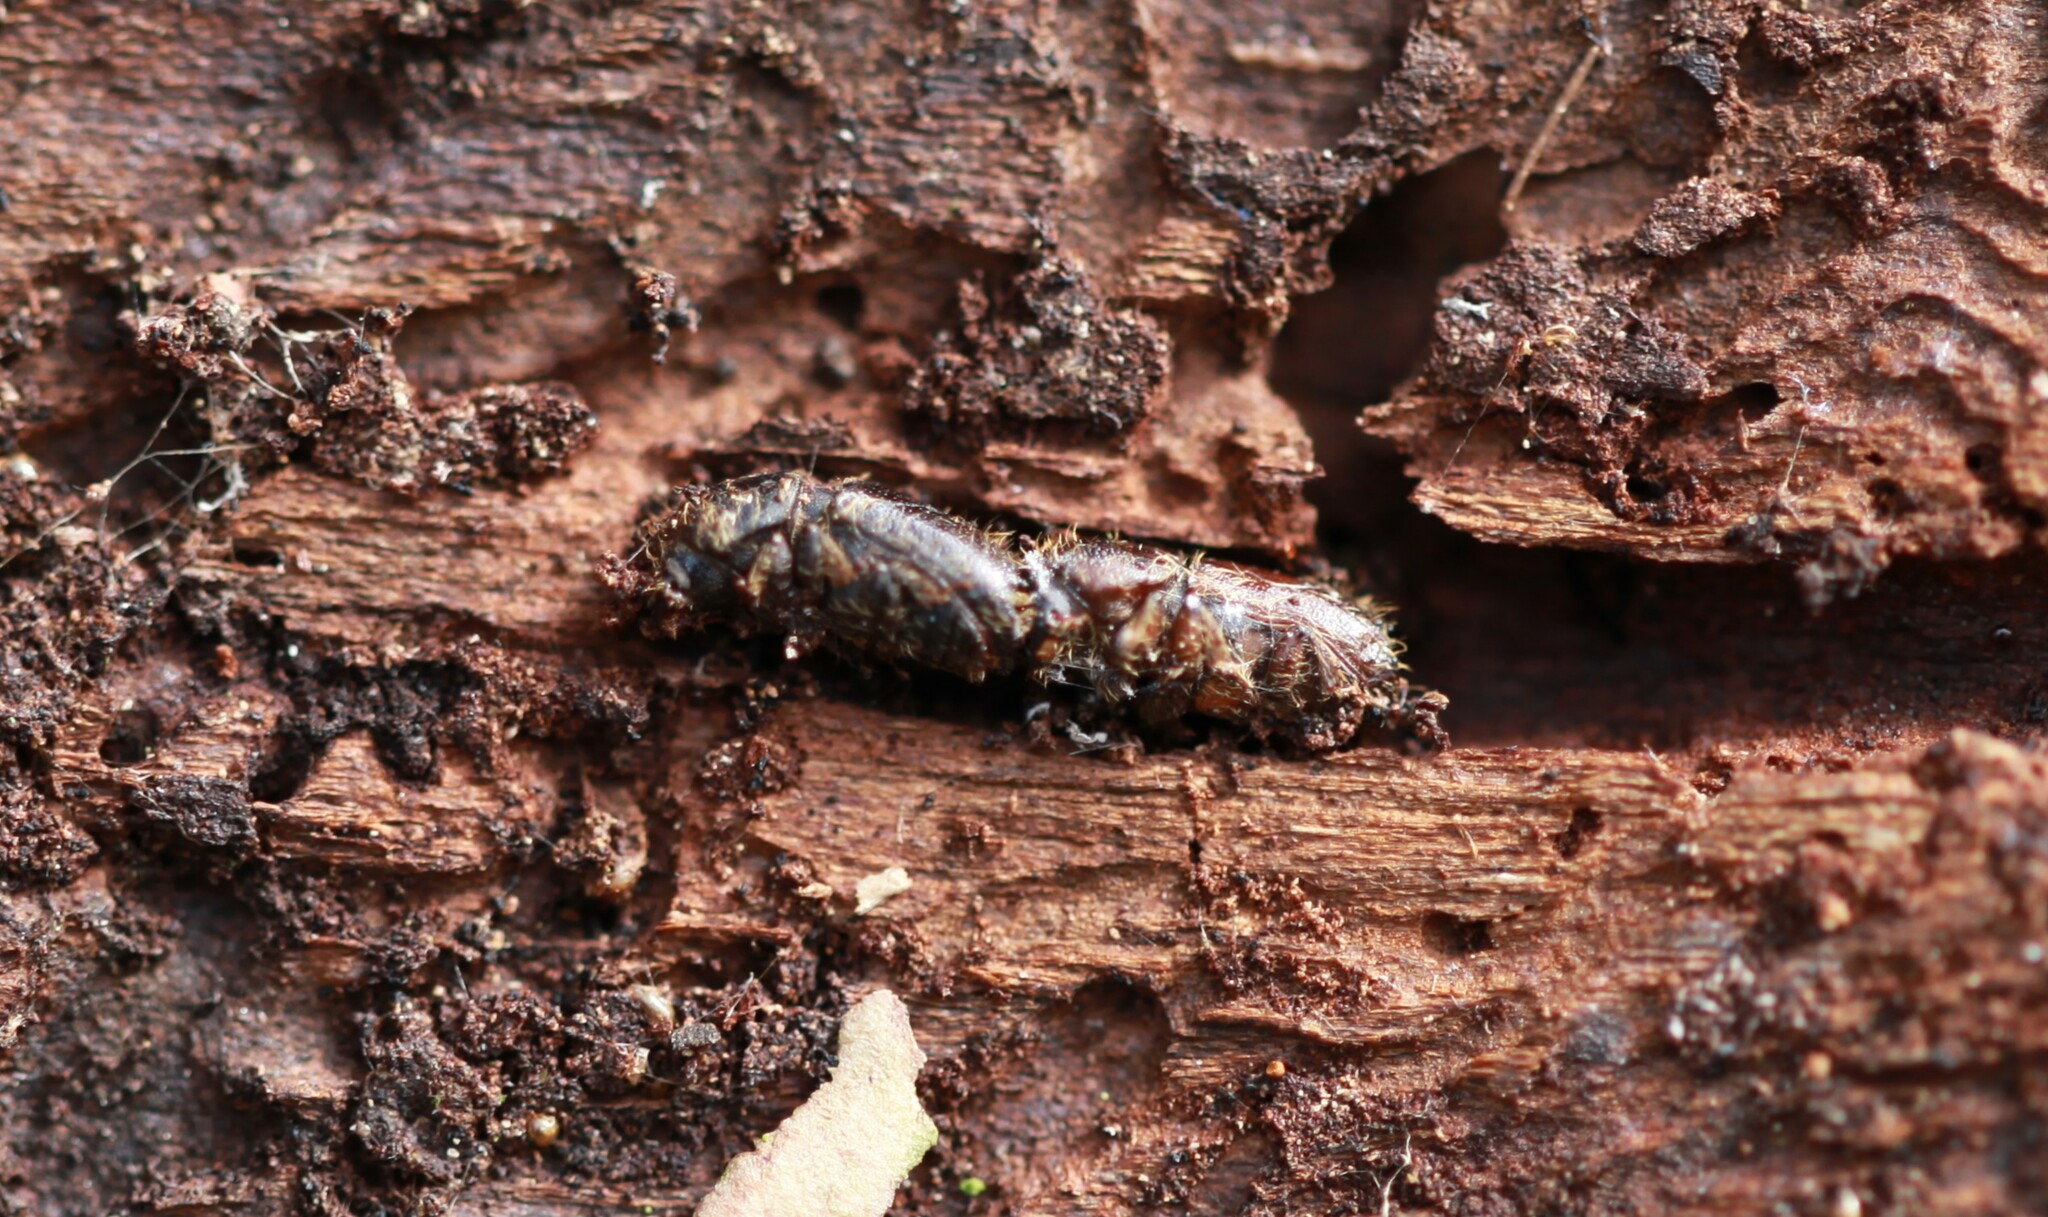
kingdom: Animalia
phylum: Arthropoda
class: Insecta
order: Coleoptera
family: Curculionidae
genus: Ips
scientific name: Ips typographus
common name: Eight-toothed spruce bark beetle
